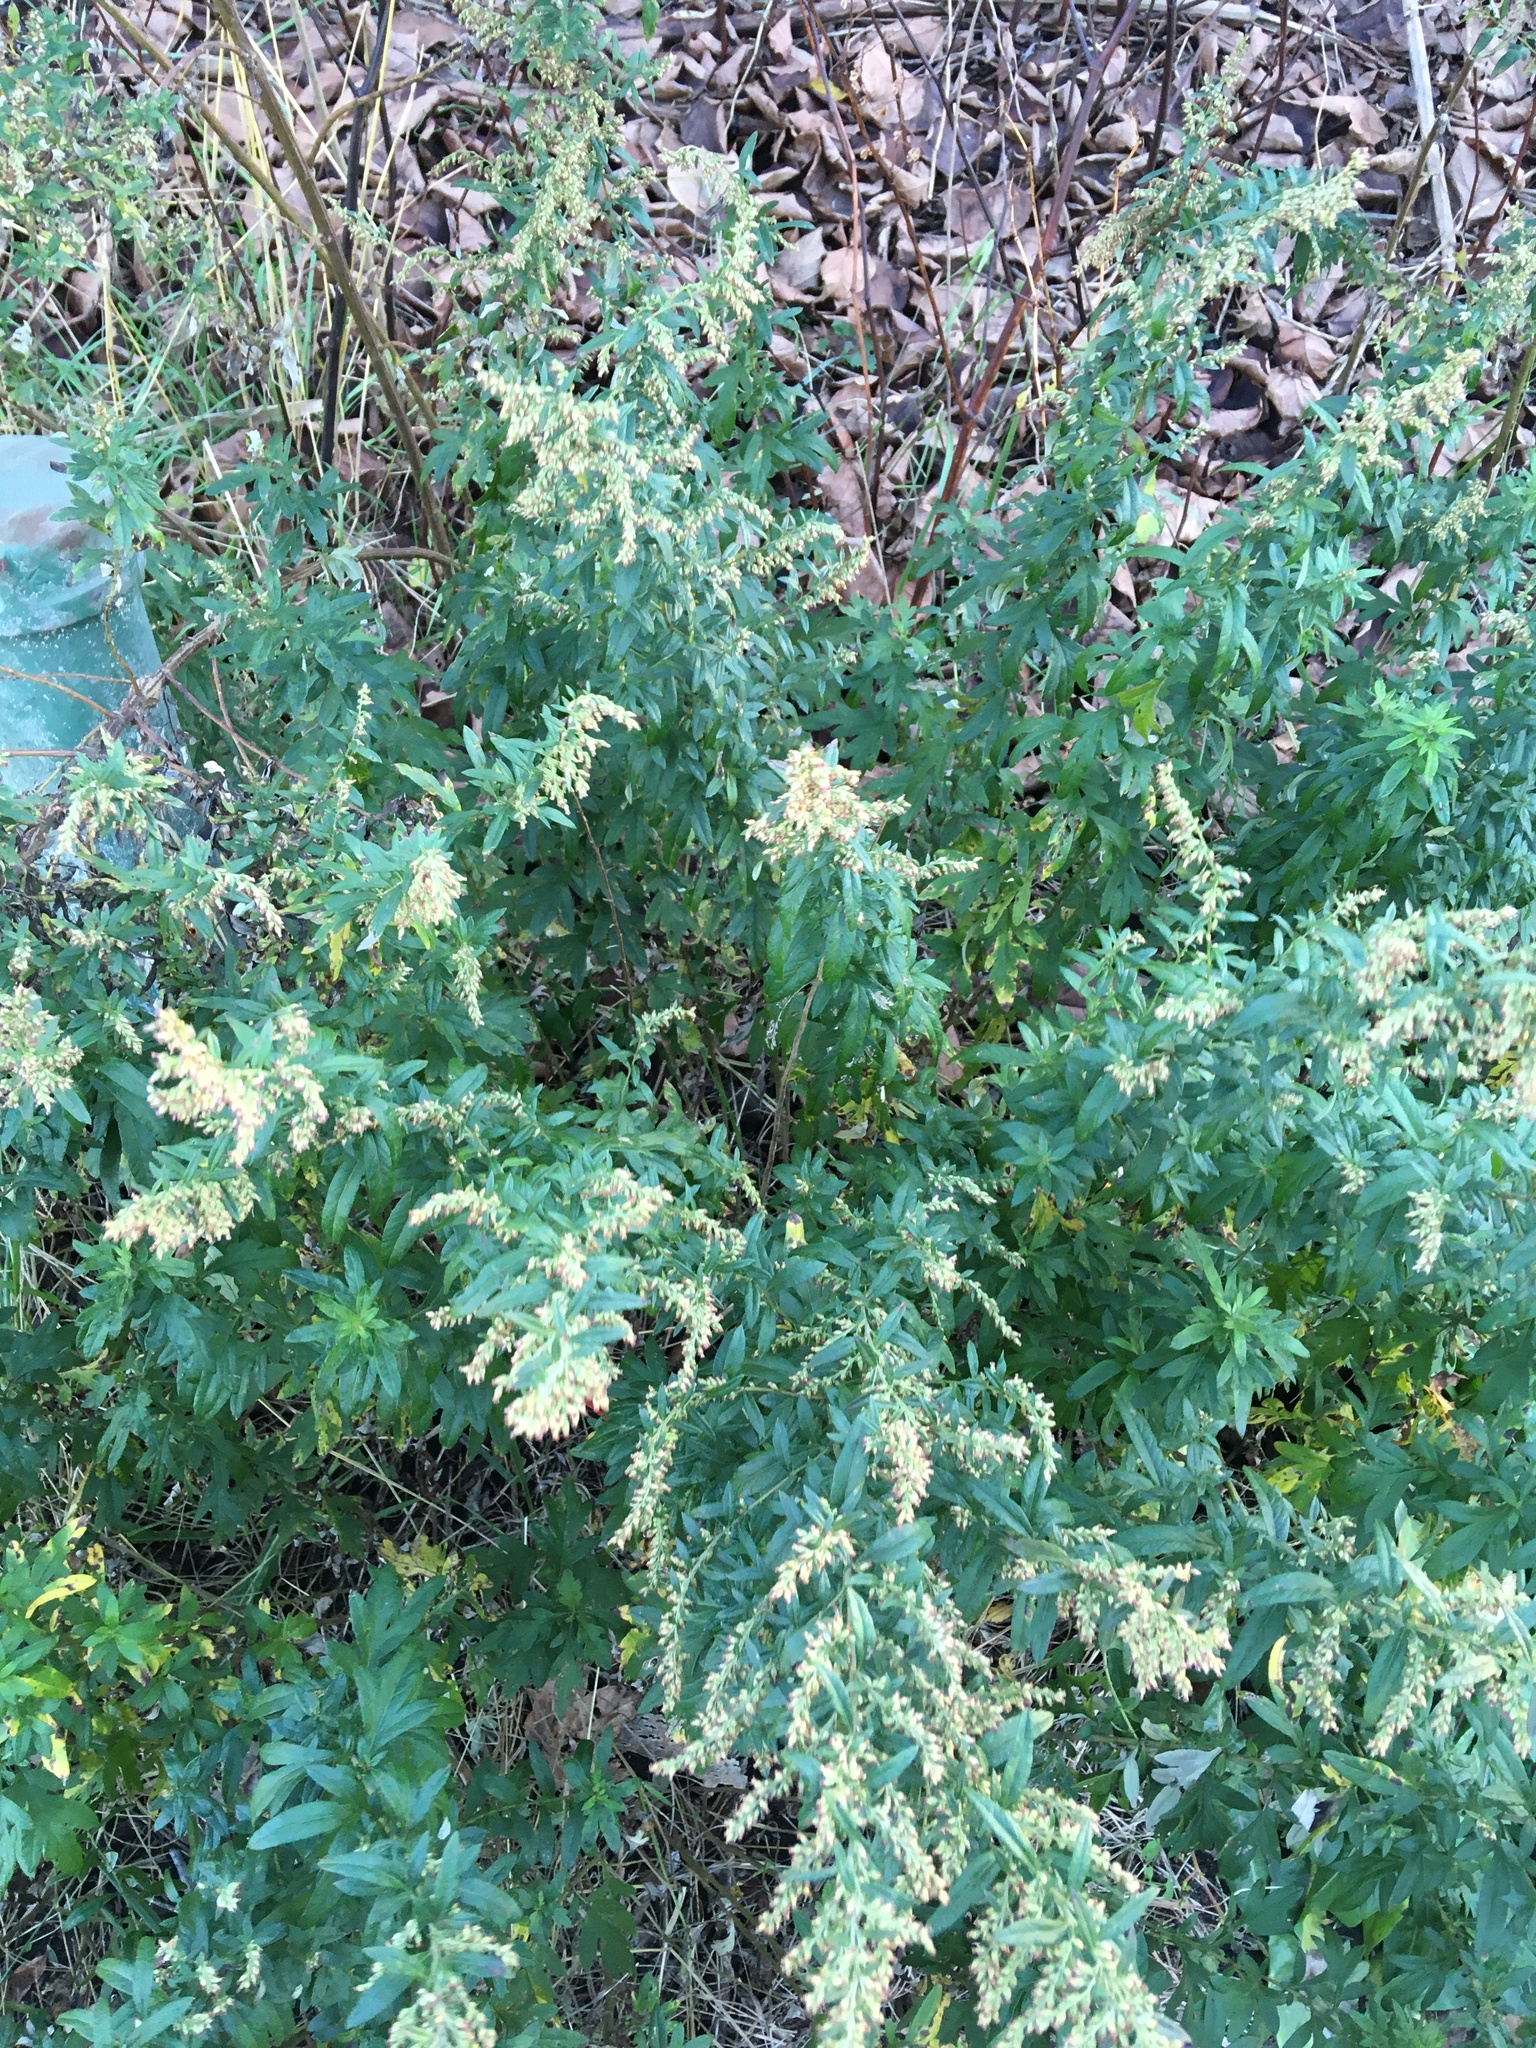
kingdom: Plantae
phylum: Tracheophyta
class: Magnoliopsida
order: Asterales
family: Asteraceae
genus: Artemisia
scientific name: Artemisia vulgaris
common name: Mugwort
